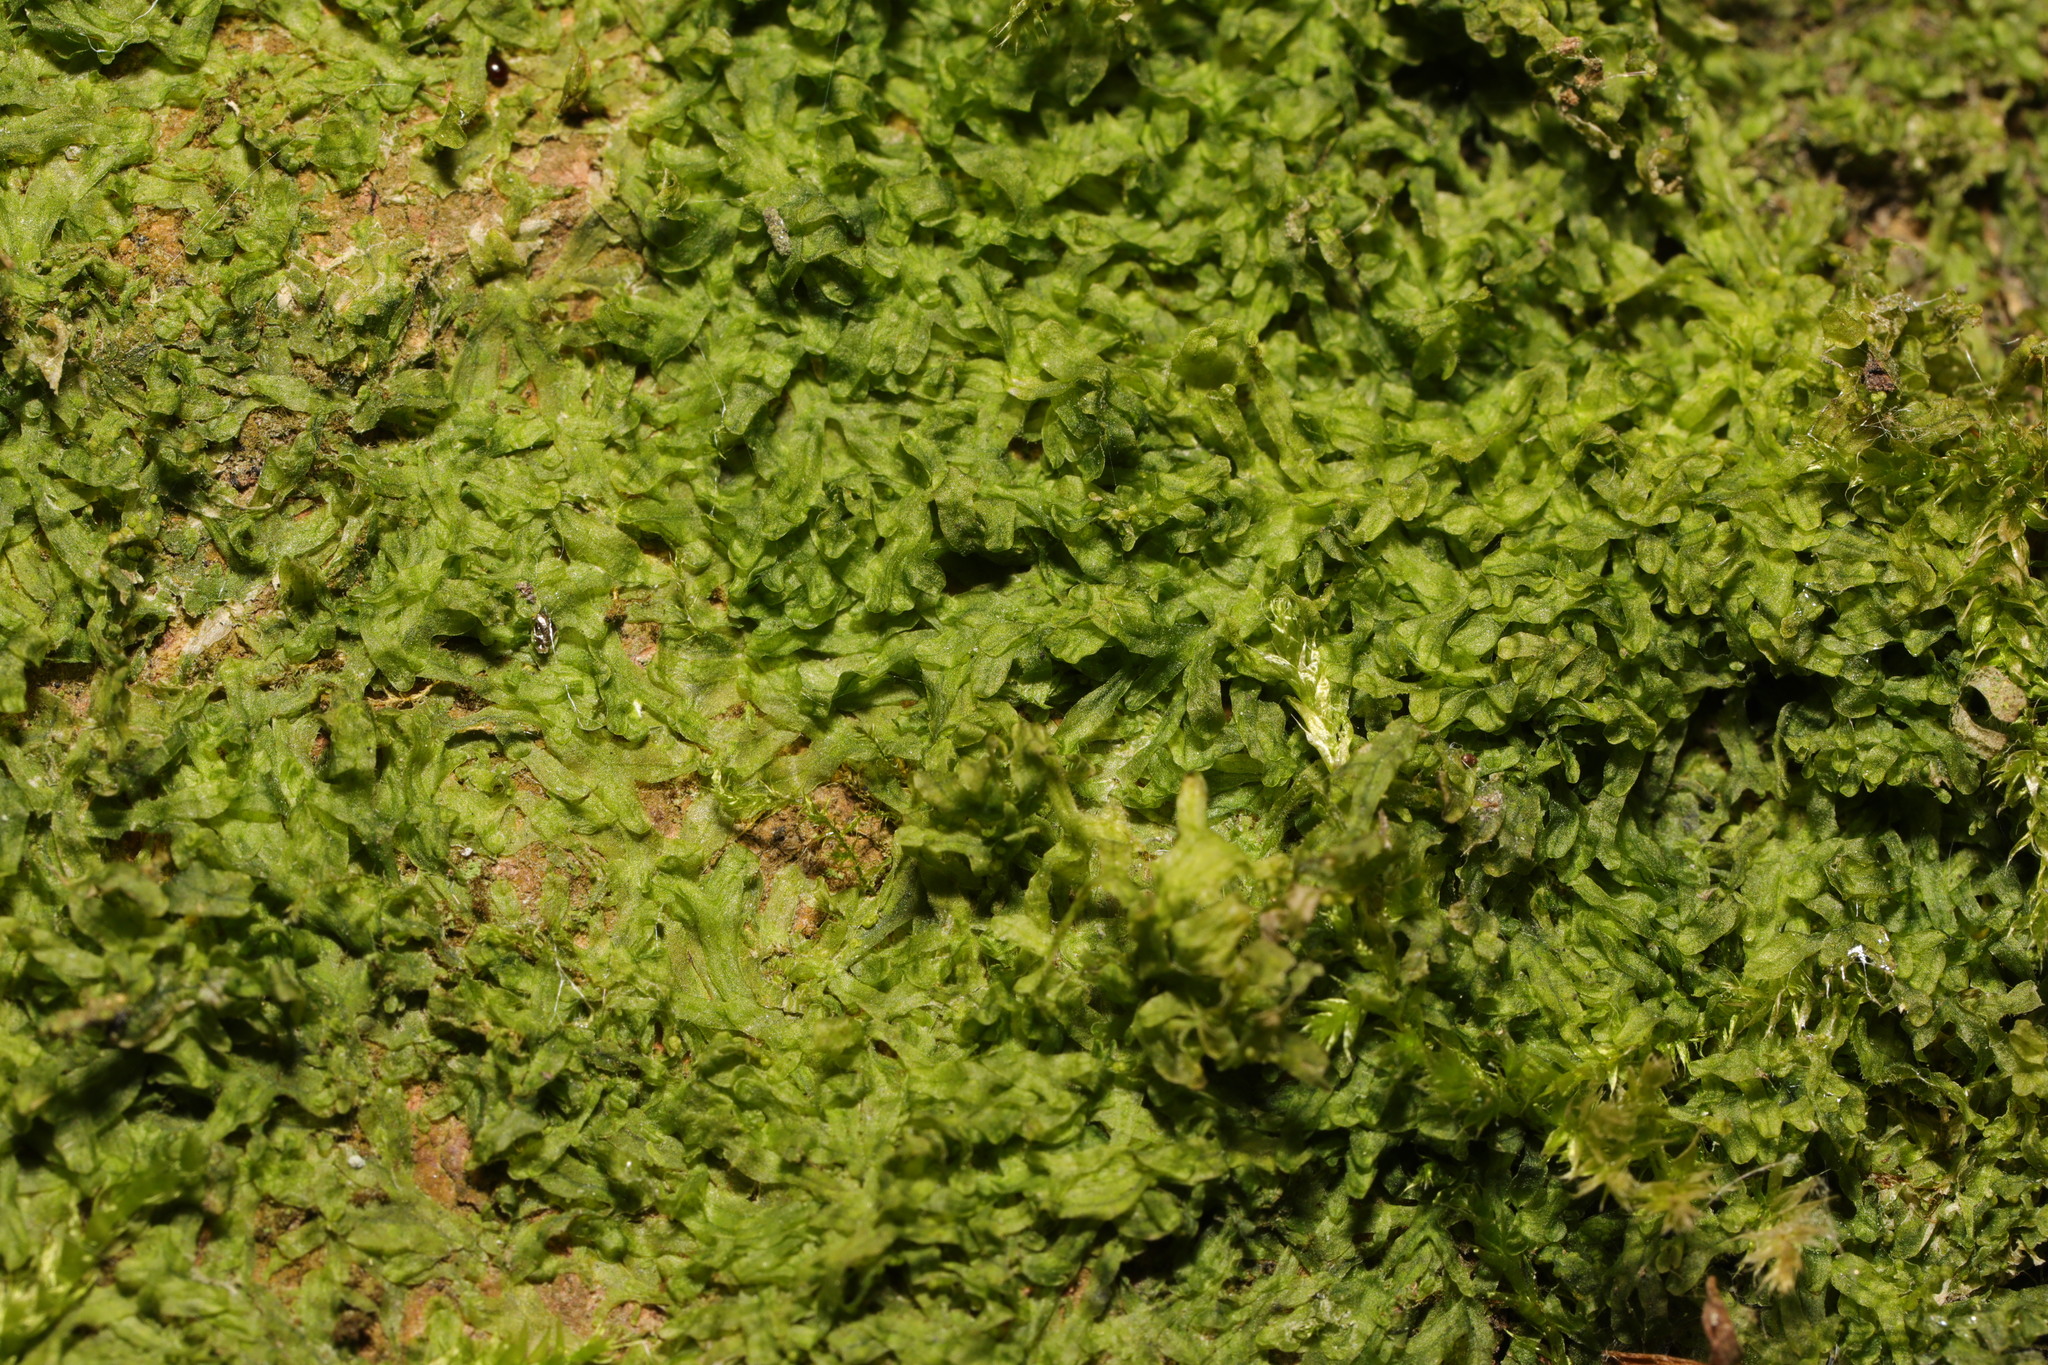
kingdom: Plantae
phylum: Marchantiophyta
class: Jungermanniopsida
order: Metzgeriales
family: Metzgeriaceae
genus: Metzgeria
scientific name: Metzgeria furcata
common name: Forked veilwort
